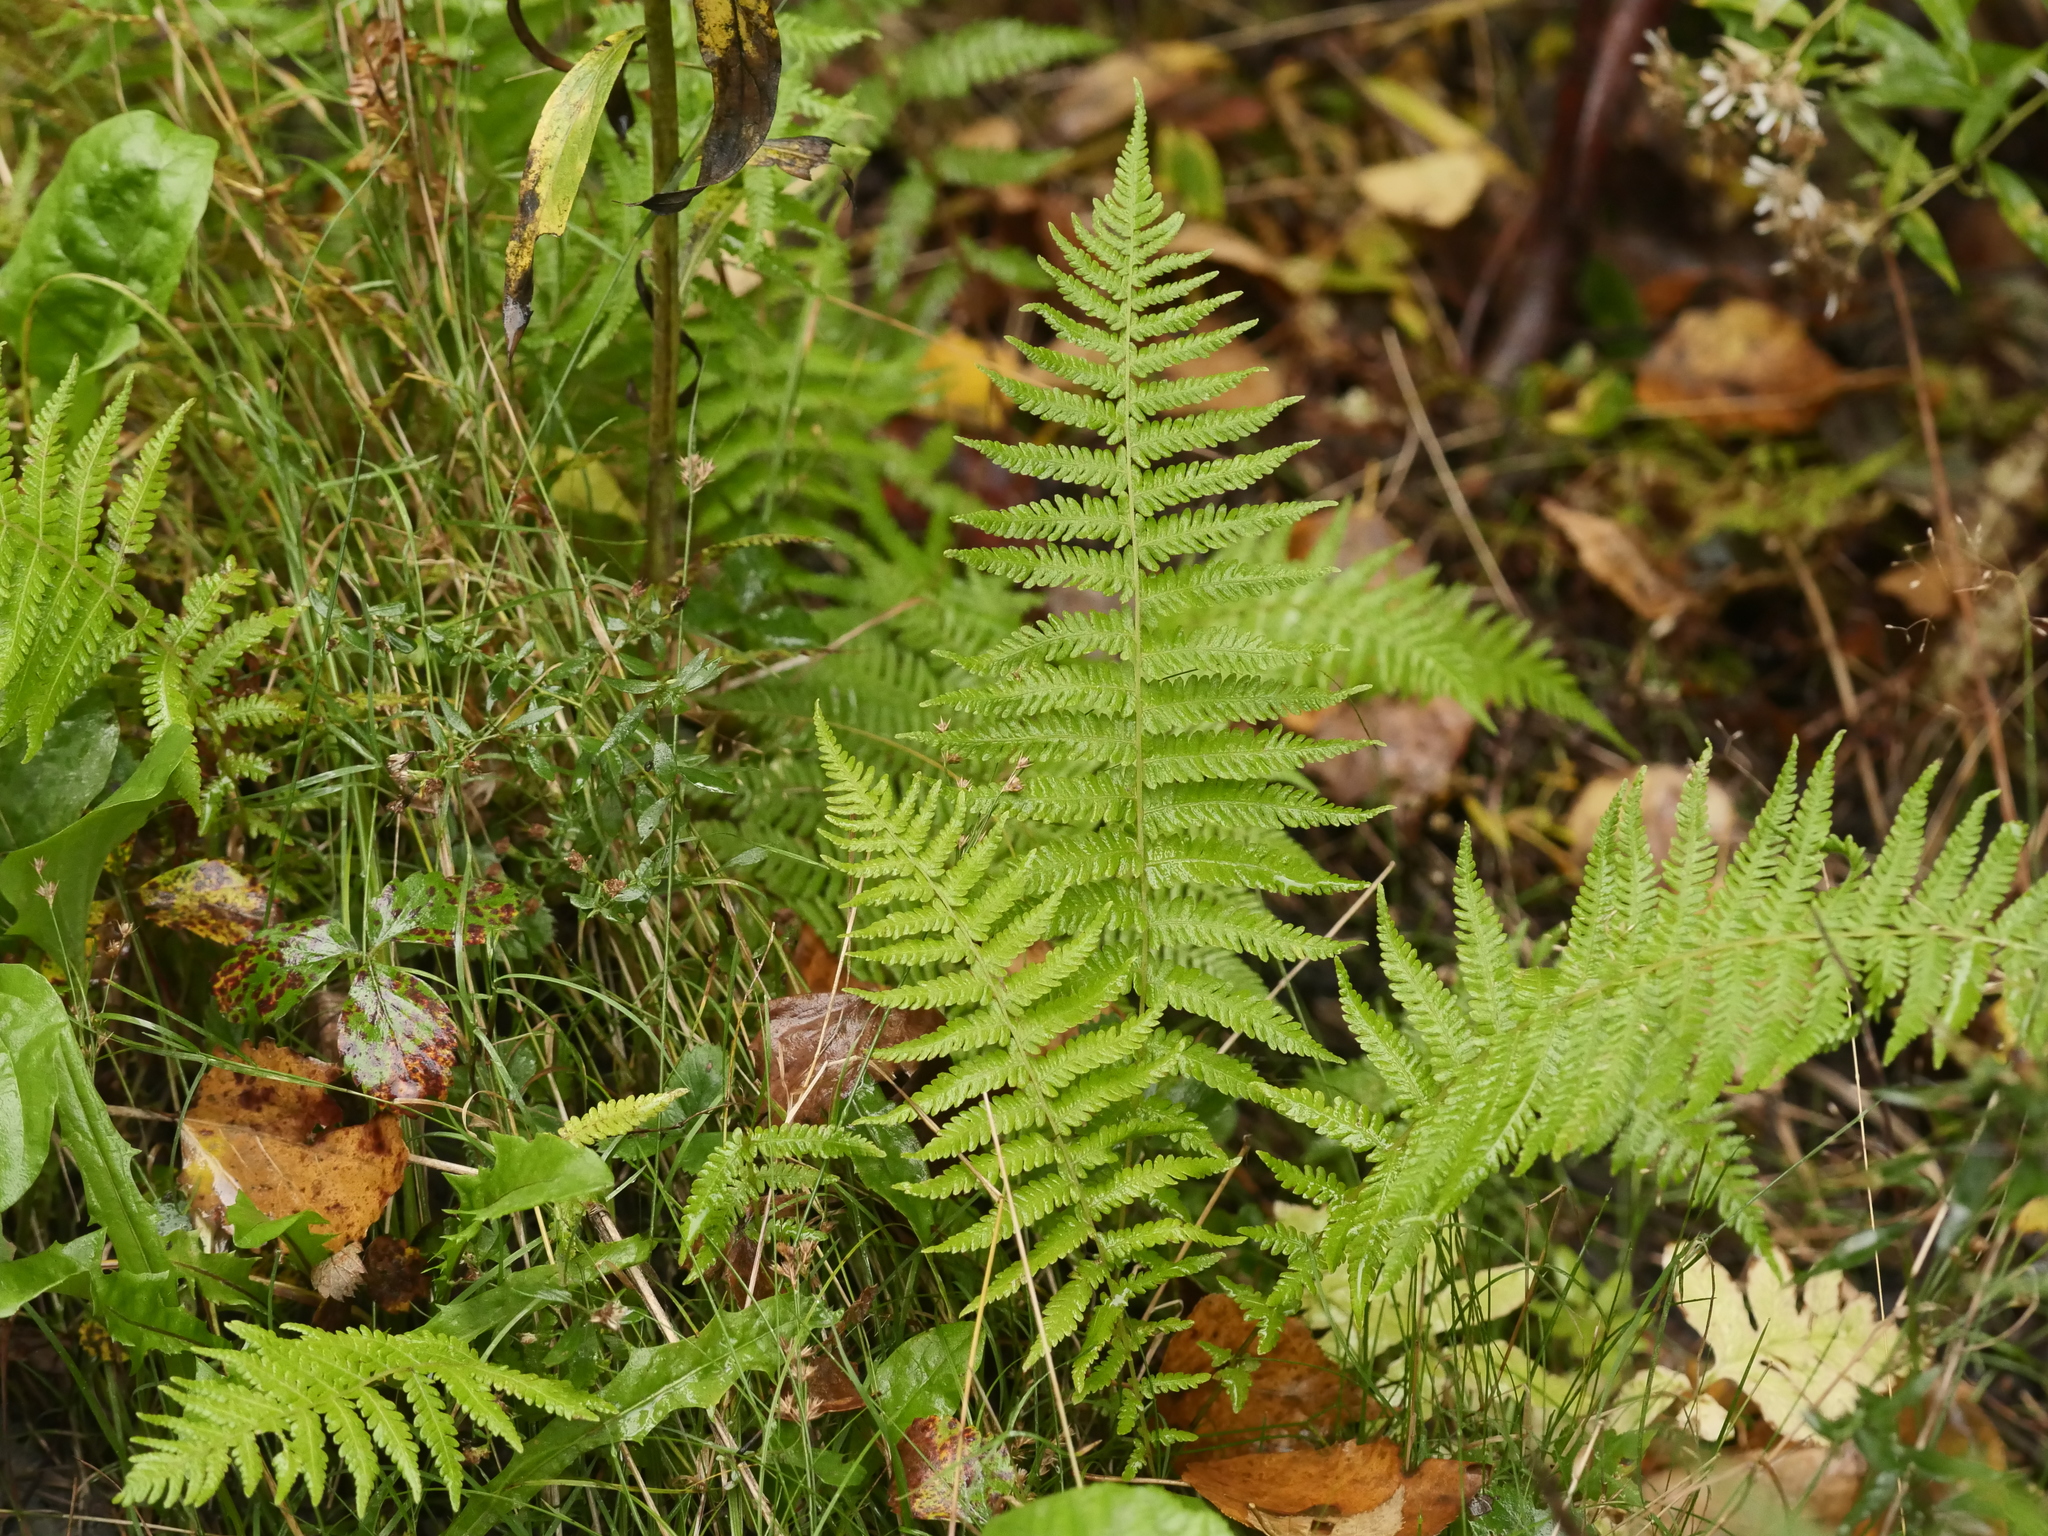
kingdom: Plantae
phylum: Tracheophyta
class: Polypodiopsida
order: Polypodiales
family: Thelypteridaceae
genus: Amauropelta
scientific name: Amauropelta noveboracensis
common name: New york fern
